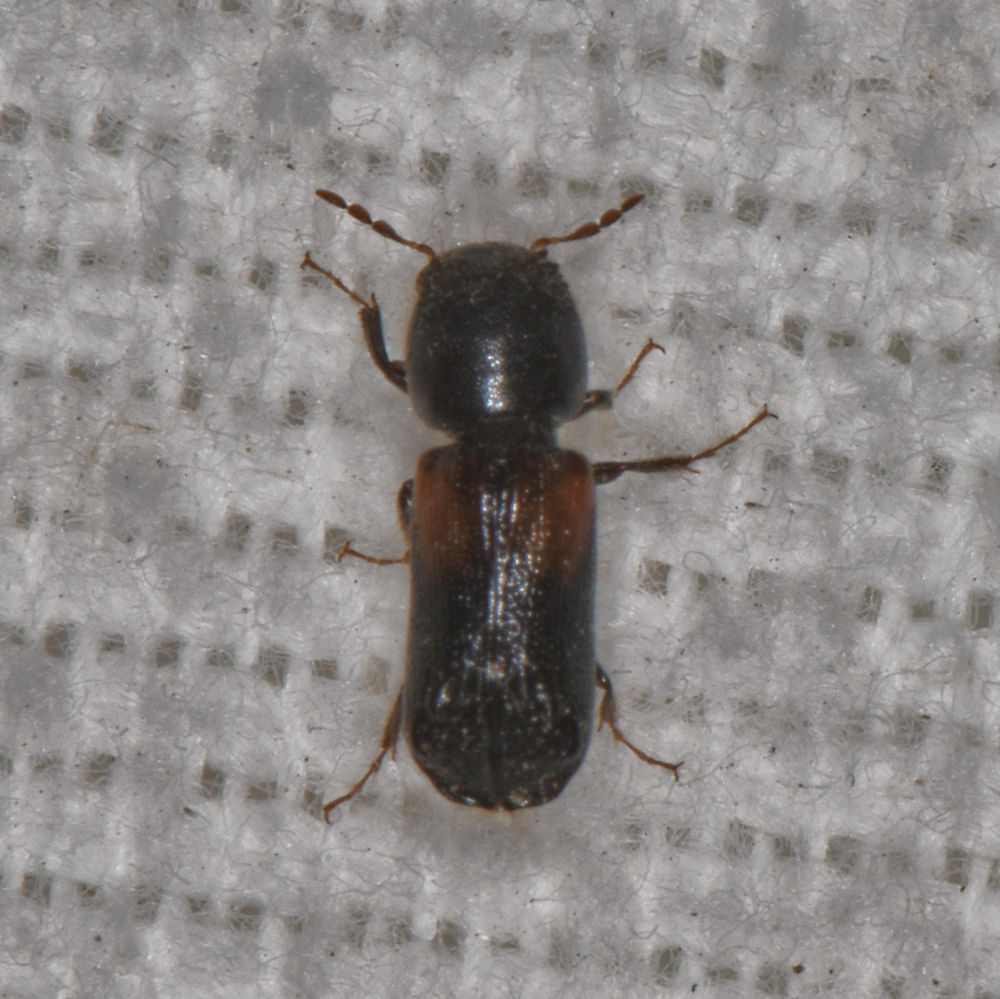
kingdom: Animalia
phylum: Arthropoda
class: Insecta
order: Coleoptera
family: Bostrichidae
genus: Xylobiops
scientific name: Xylobiops basilaris
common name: Red-shouldered bostrichid
